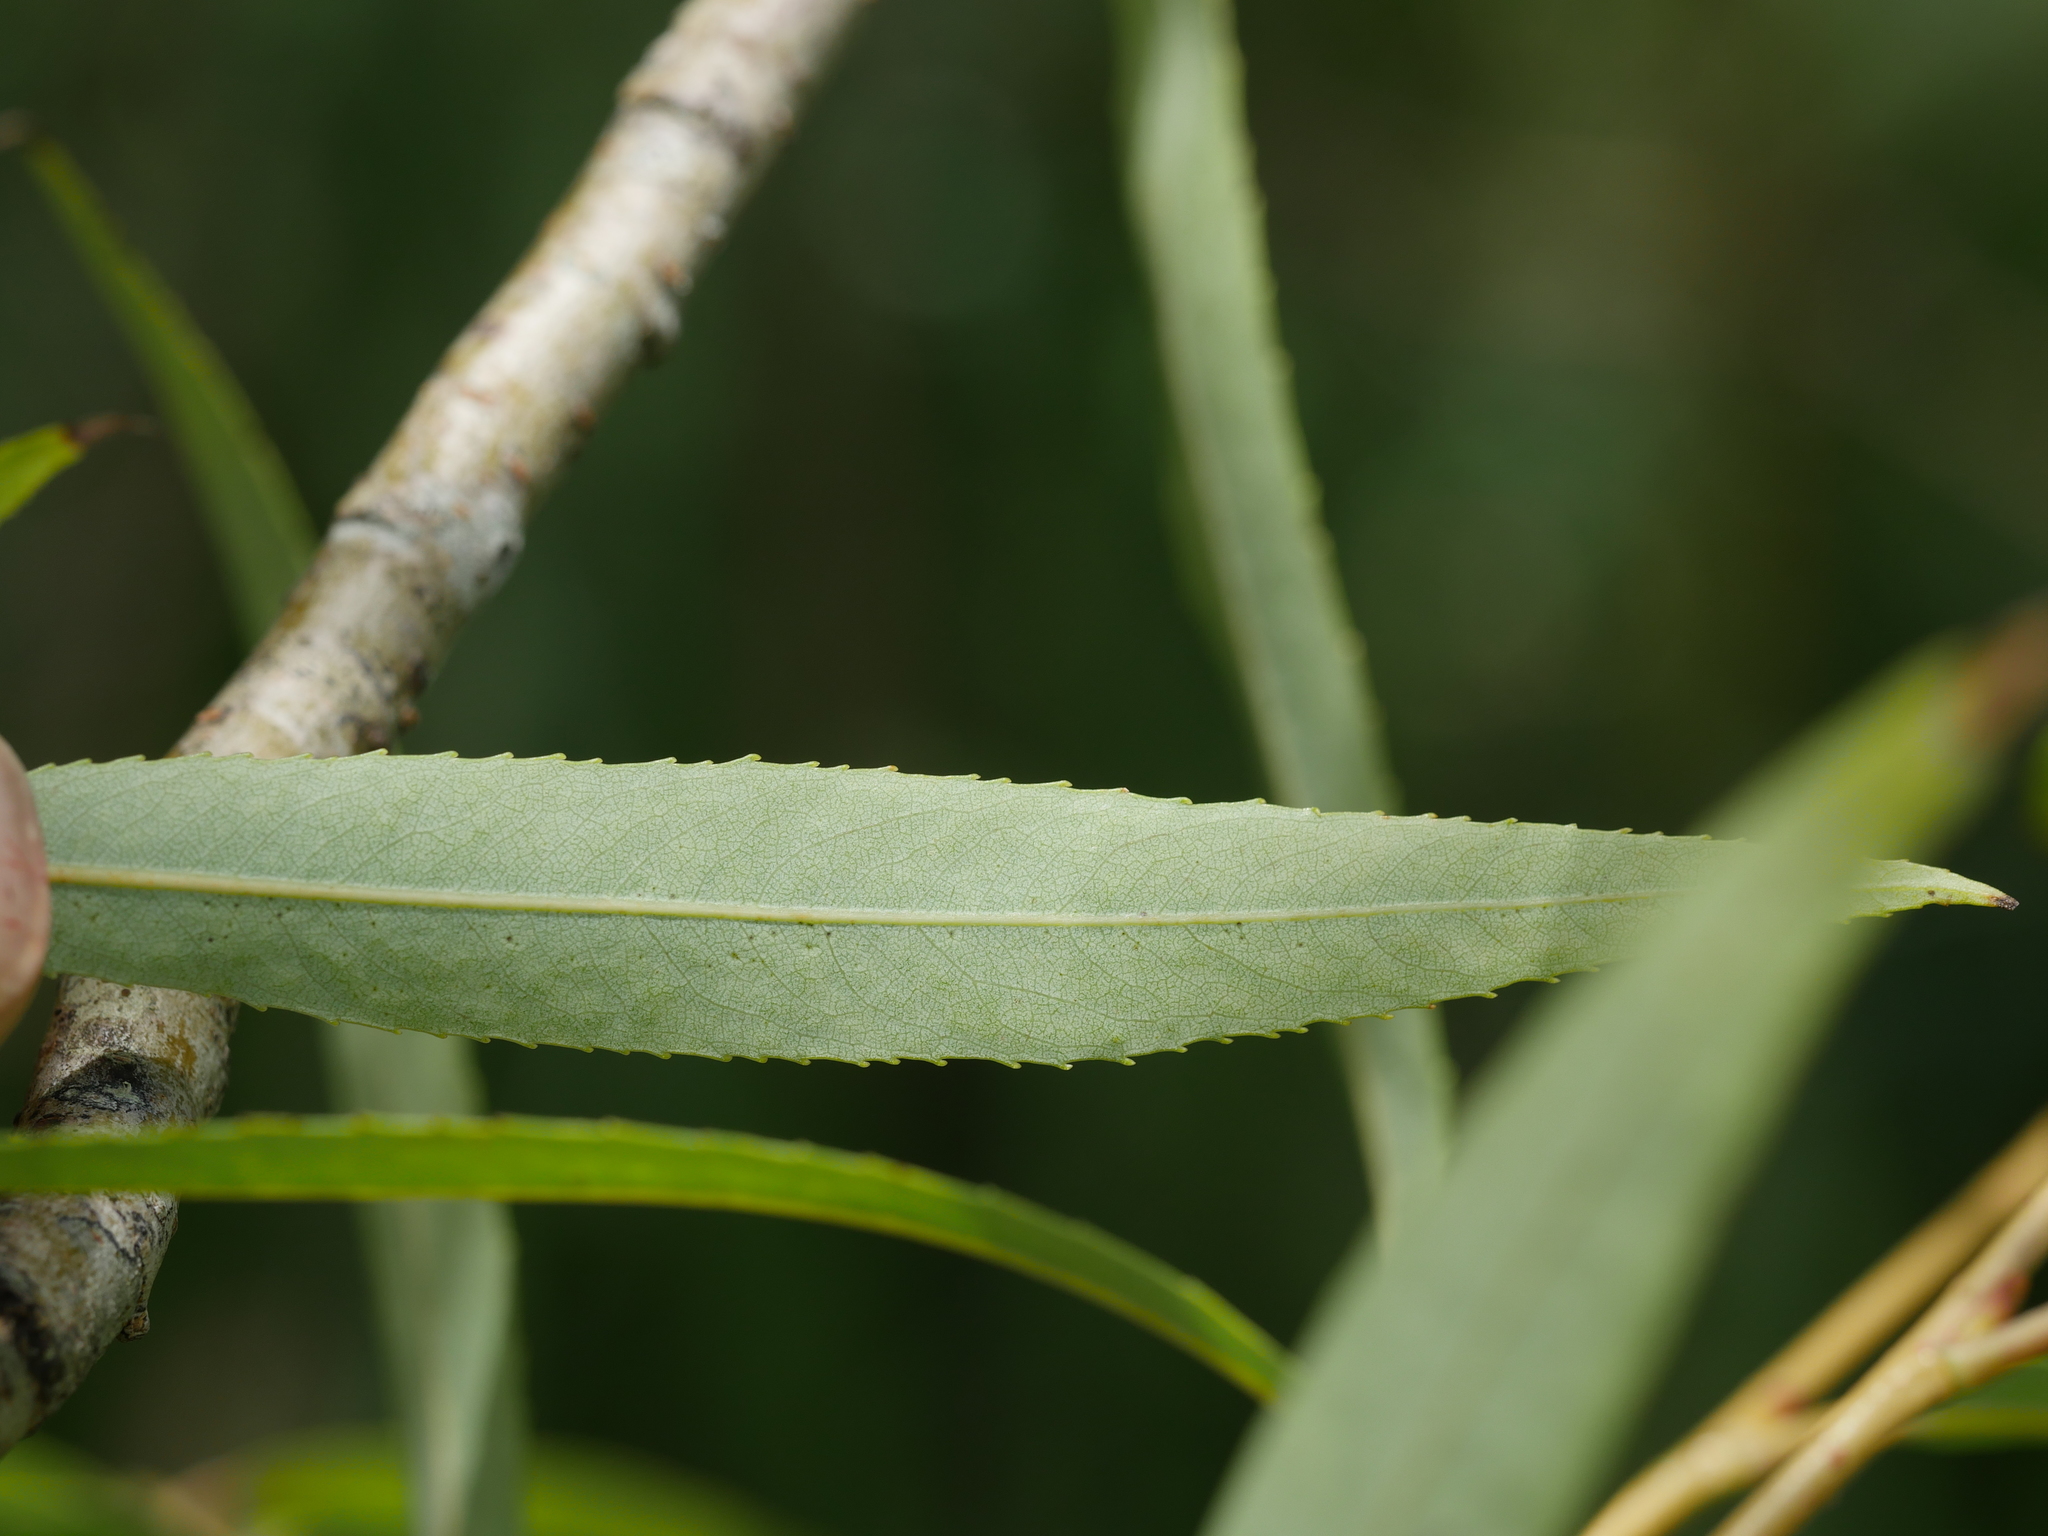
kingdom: Plantae
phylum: Tracheophyta
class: Magnoliopsida
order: Malpighiales
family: Salicaceae
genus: Salix
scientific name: Salix babylonica
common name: Weeping willow
